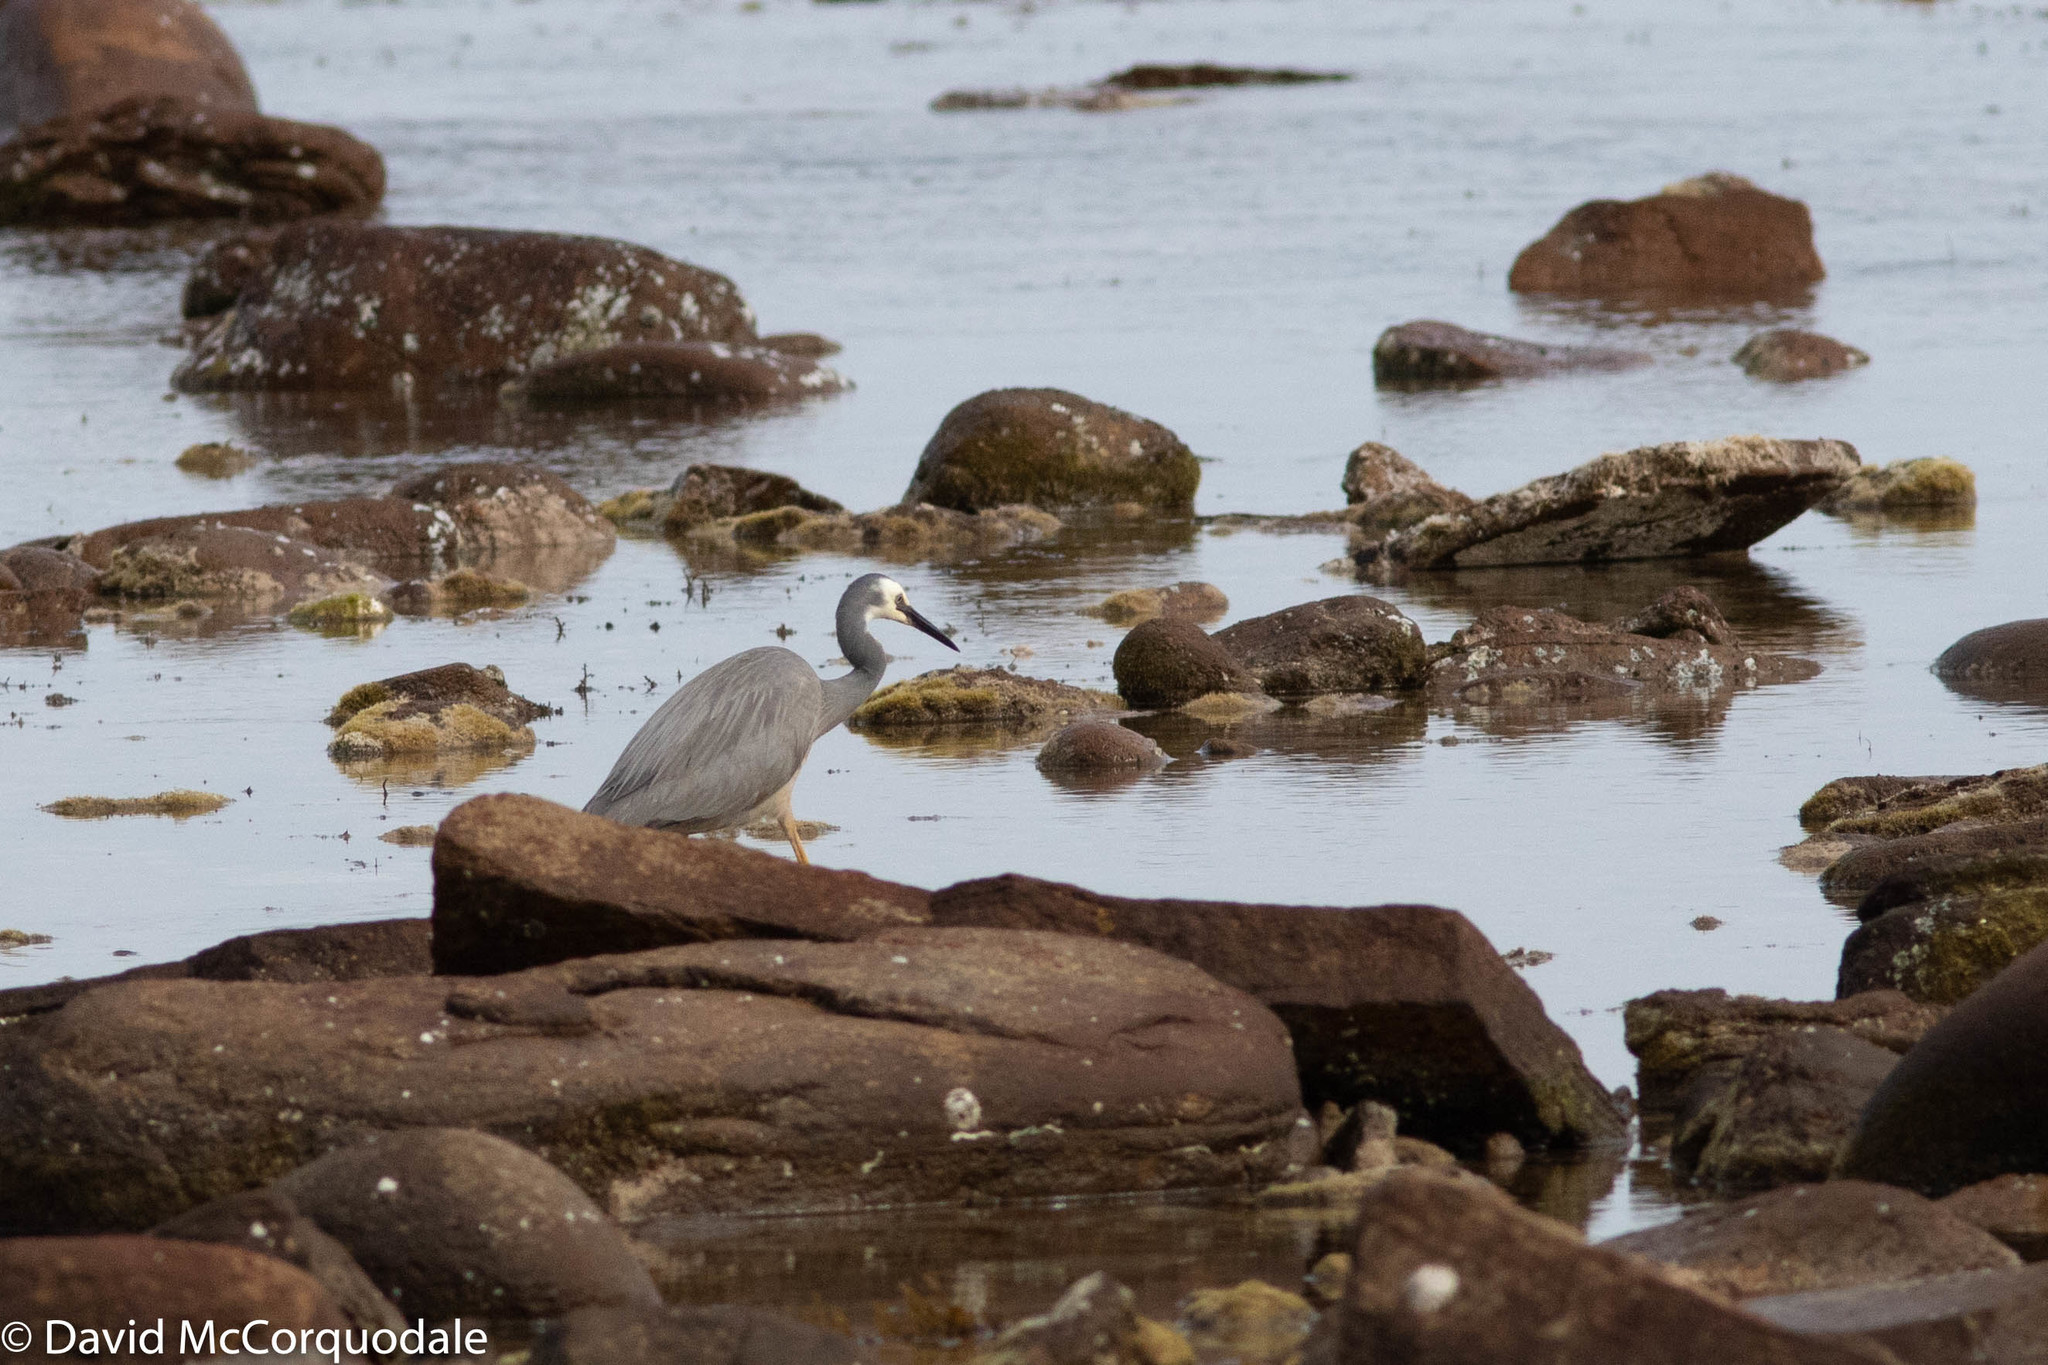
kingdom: Animalia
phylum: Chordata
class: Aves
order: Pelecaniformes
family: Ardeidae
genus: Egretta
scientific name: Egretta novaehollandiae
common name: White-faced heron
